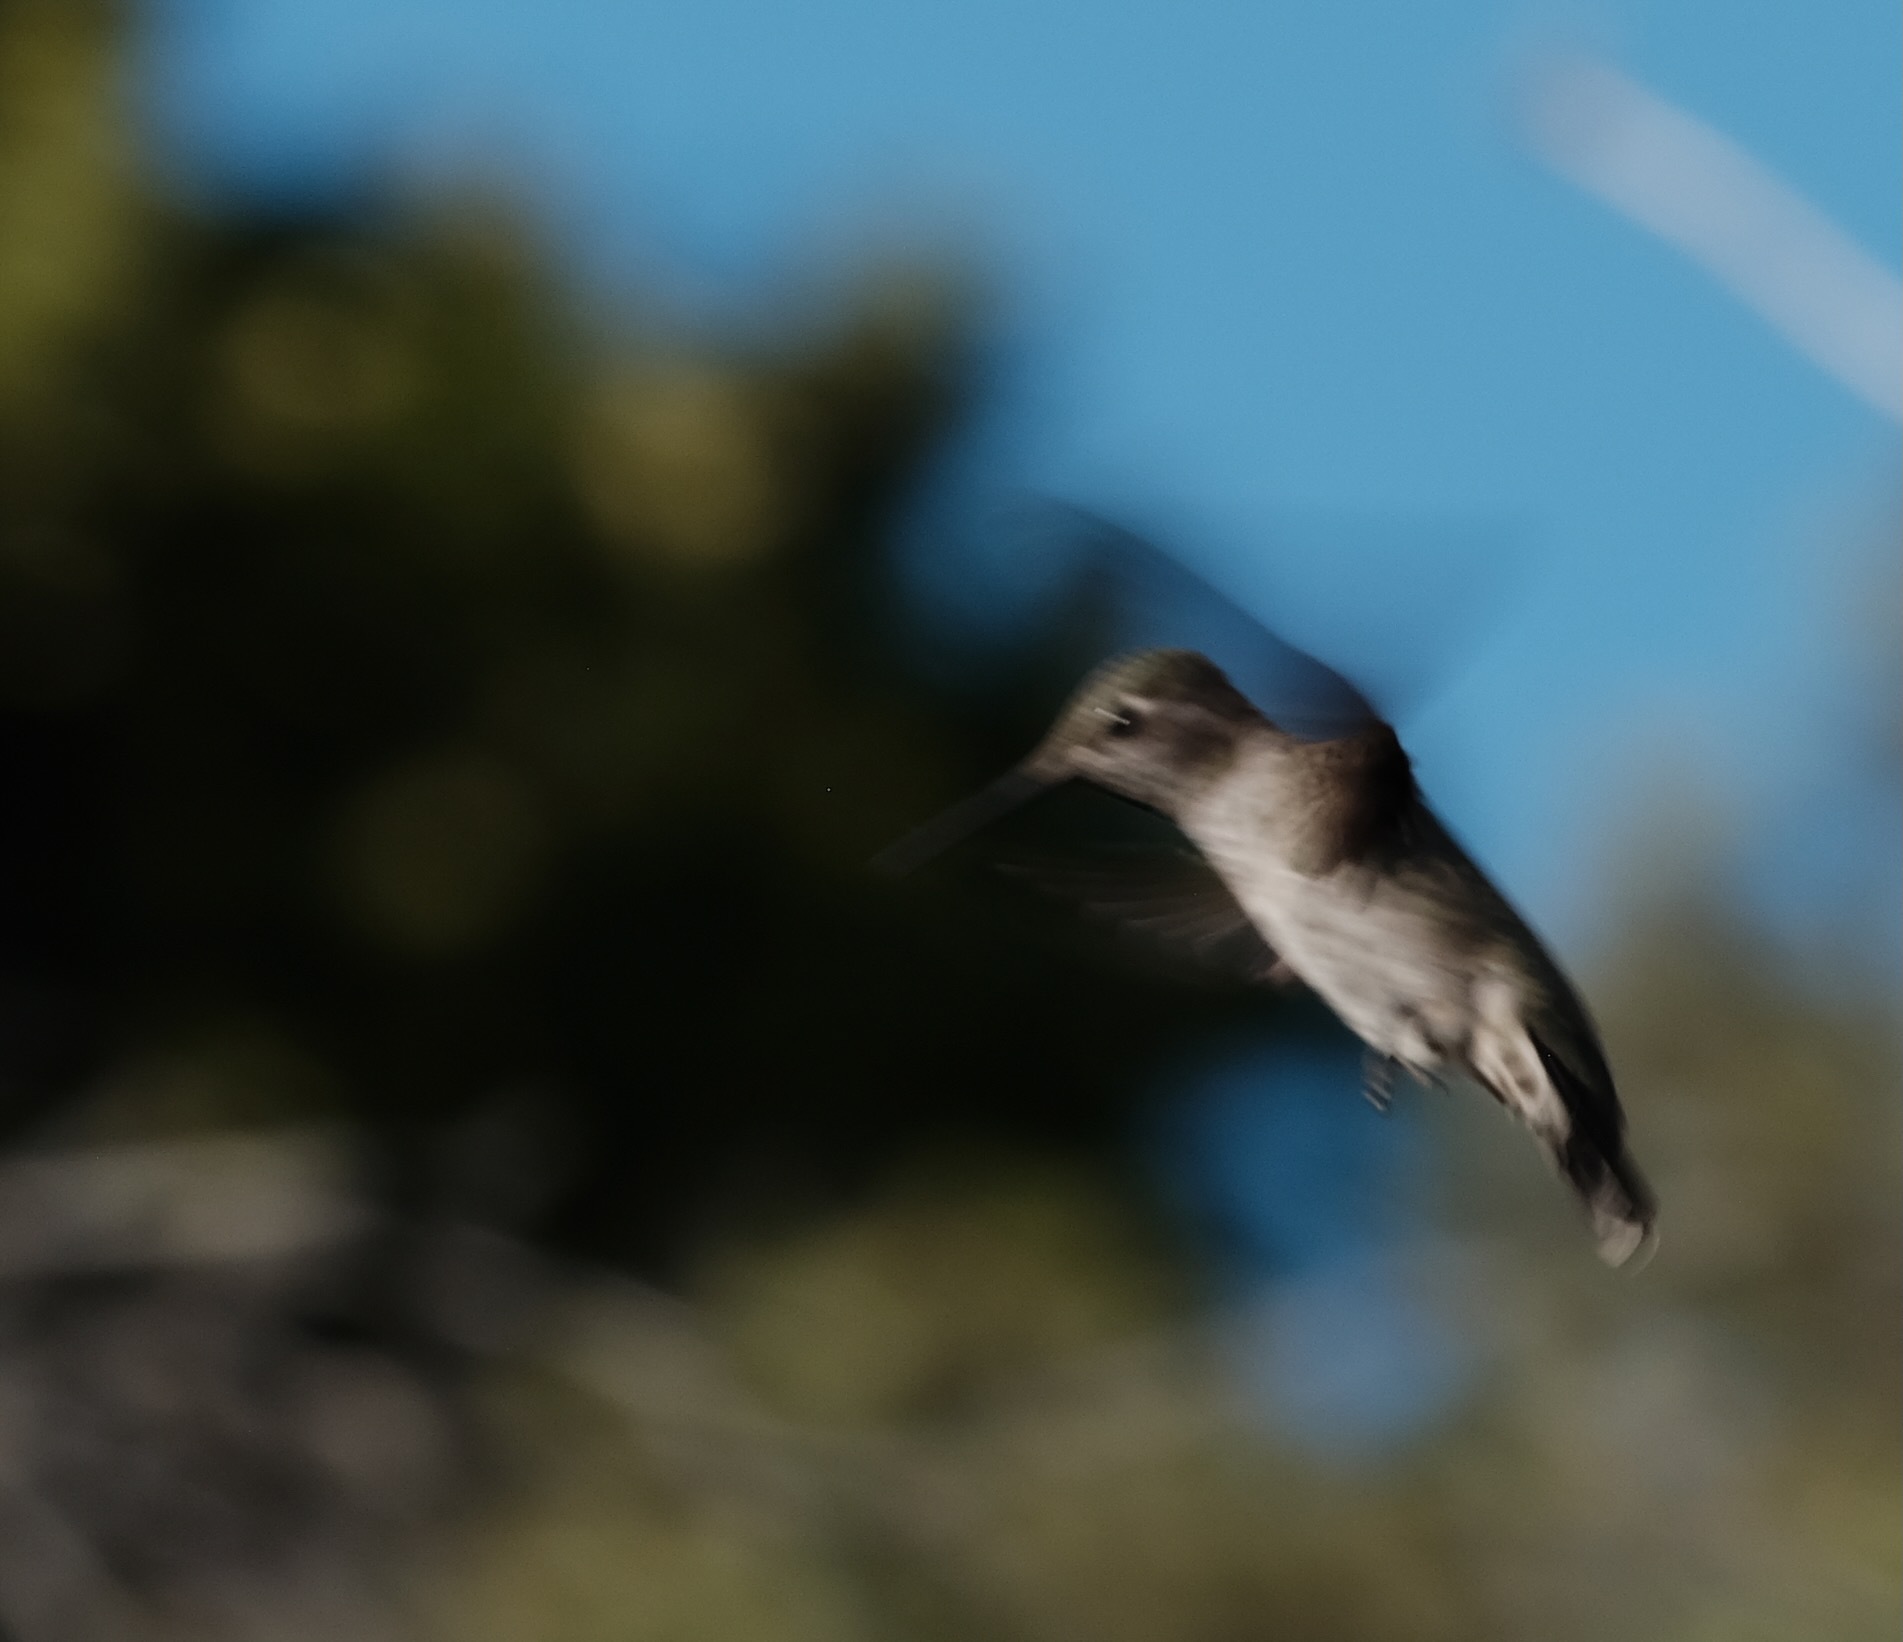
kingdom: Animalia
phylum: Chordata
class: Aves
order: Apodiformes
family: Trochilidae
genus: Calypte
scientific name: Calypte anna
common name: Anna's hummingbird
